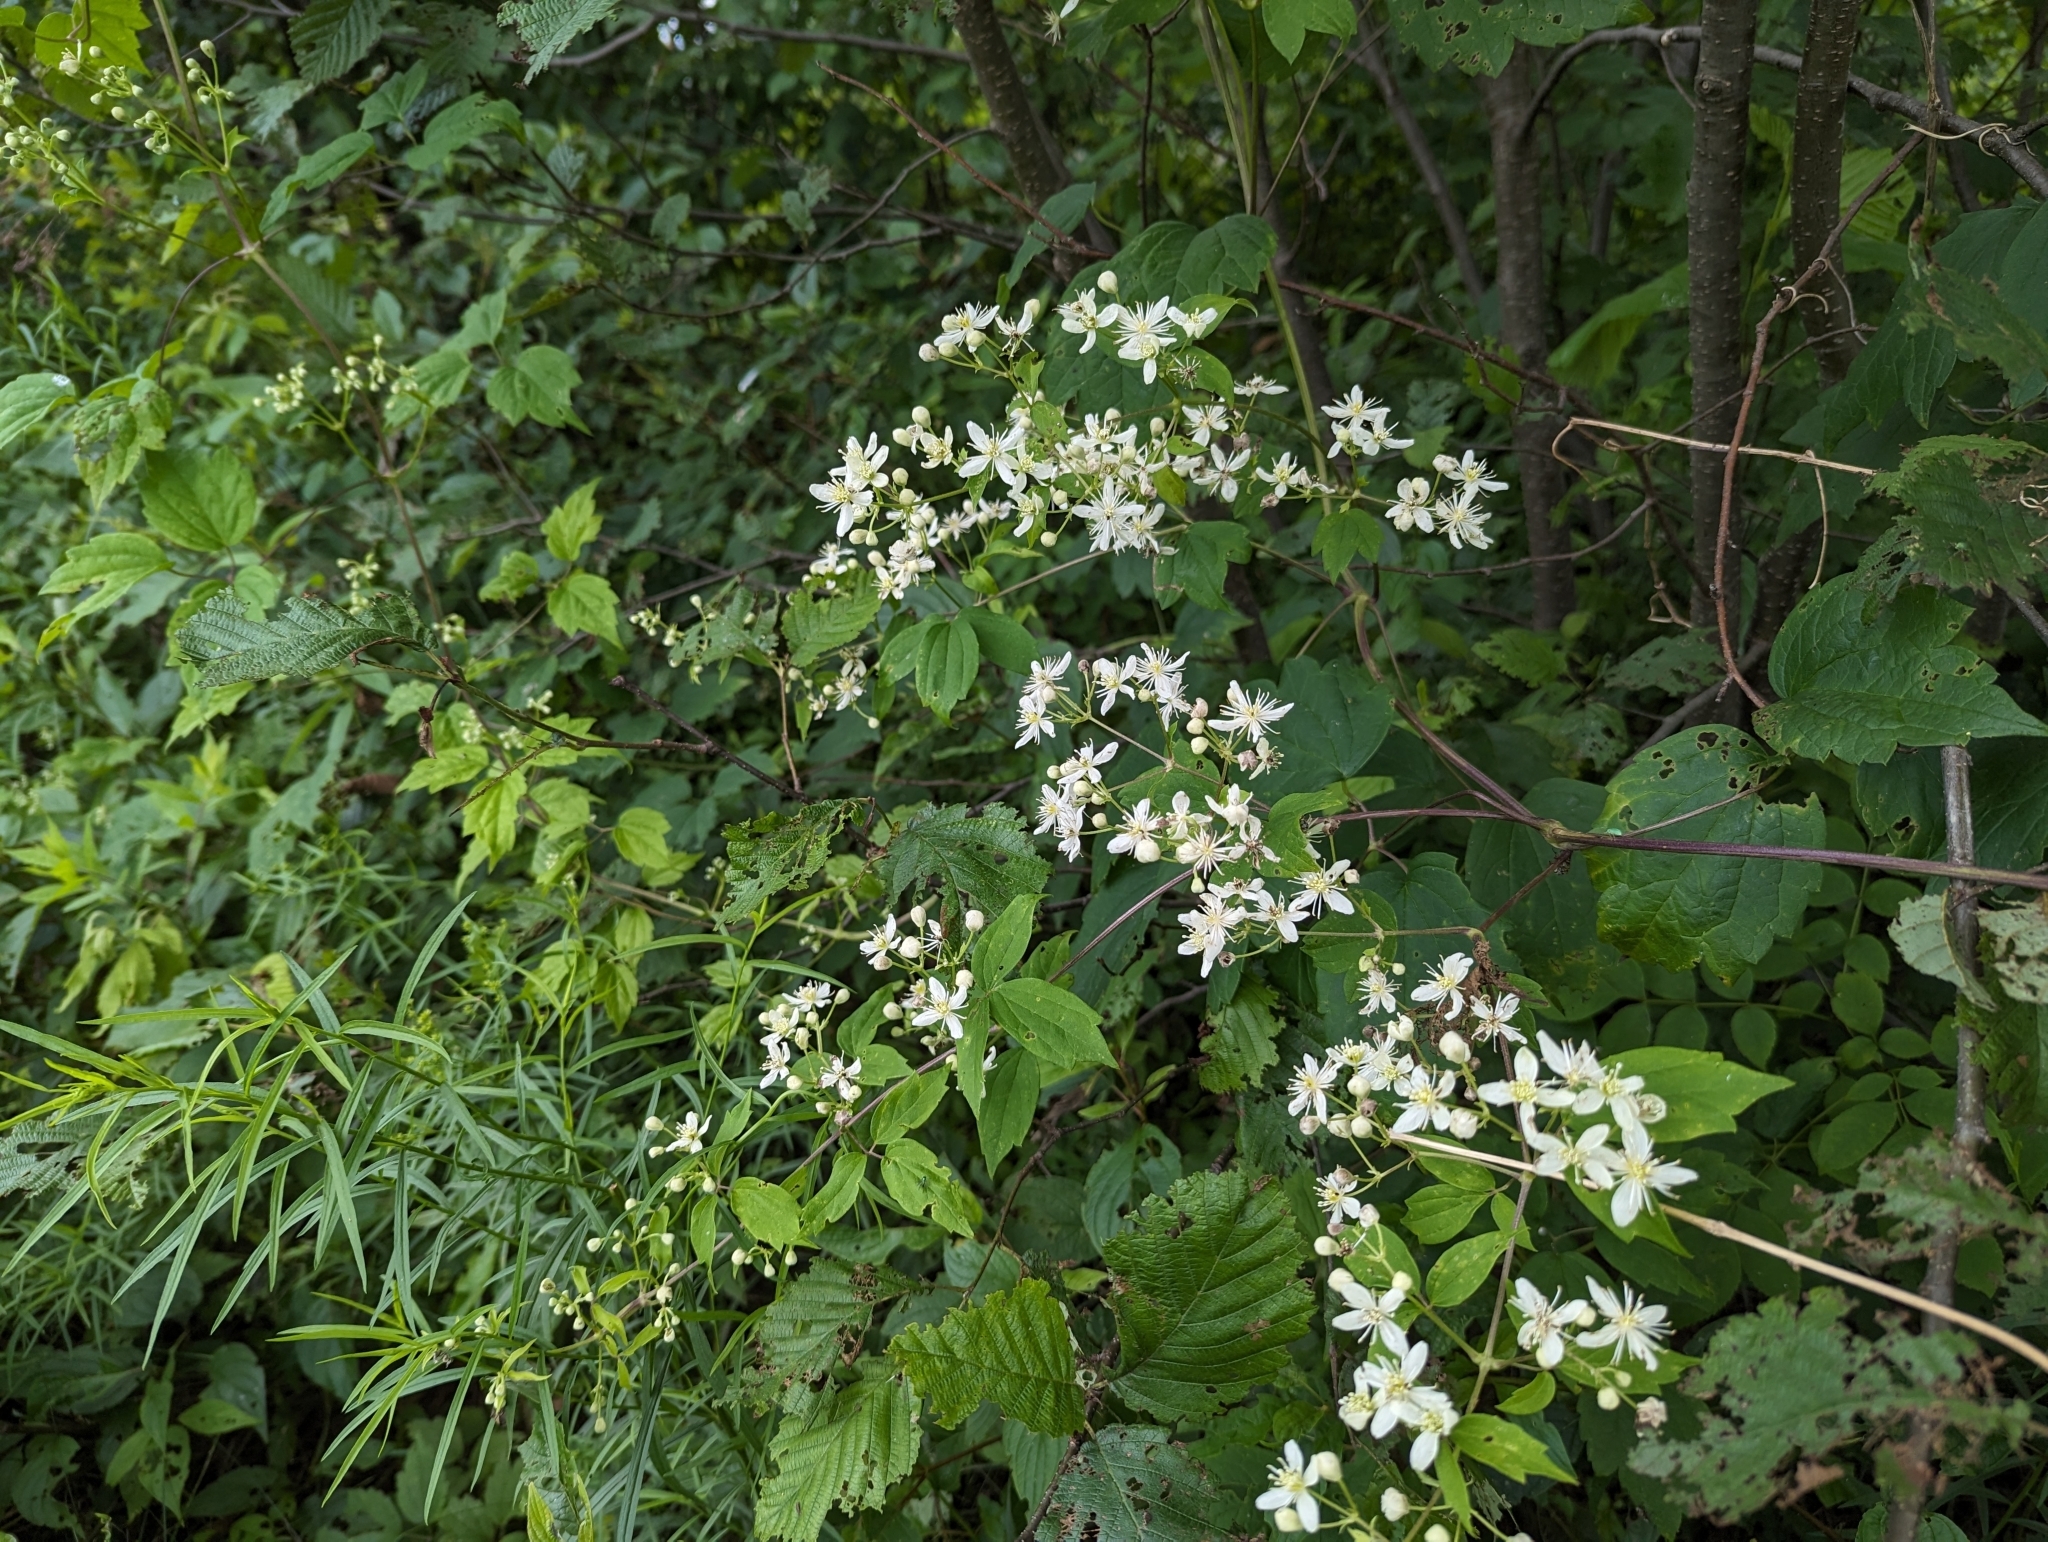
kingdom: Plantae
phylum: Tracheophyta
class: Magnoliopsida
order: Ranunculales
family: Ranunculaceae
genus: Clematis
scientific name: Clematis virginiana
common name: Virgin's-bower
